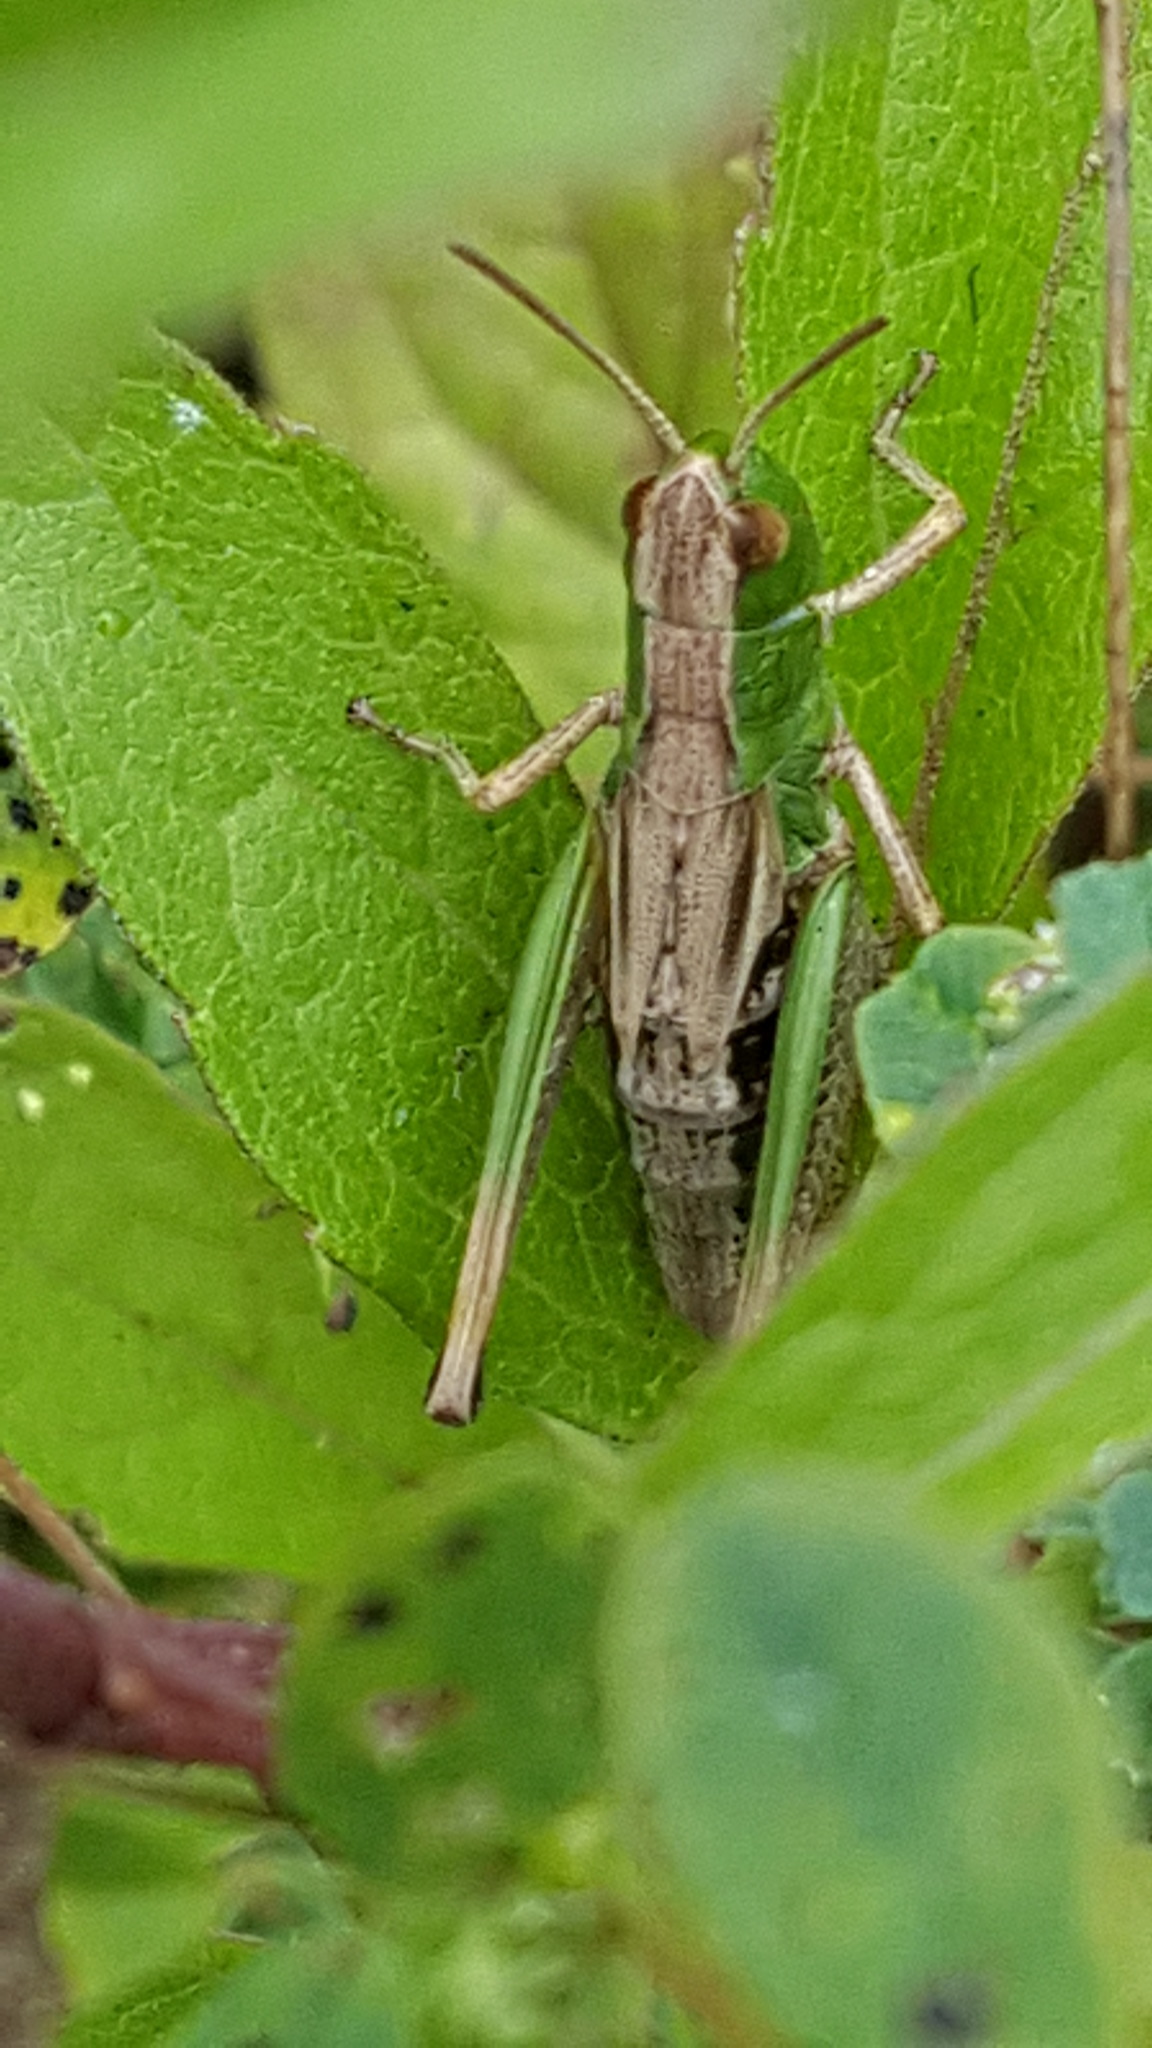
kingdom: Animalia
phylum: Arthropoda
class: Insecta
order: Orthoptera
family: Acrididae
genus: Pseudochorthippus
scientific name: Pseudochorthippus parallelus
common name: Meadow grasshopper
